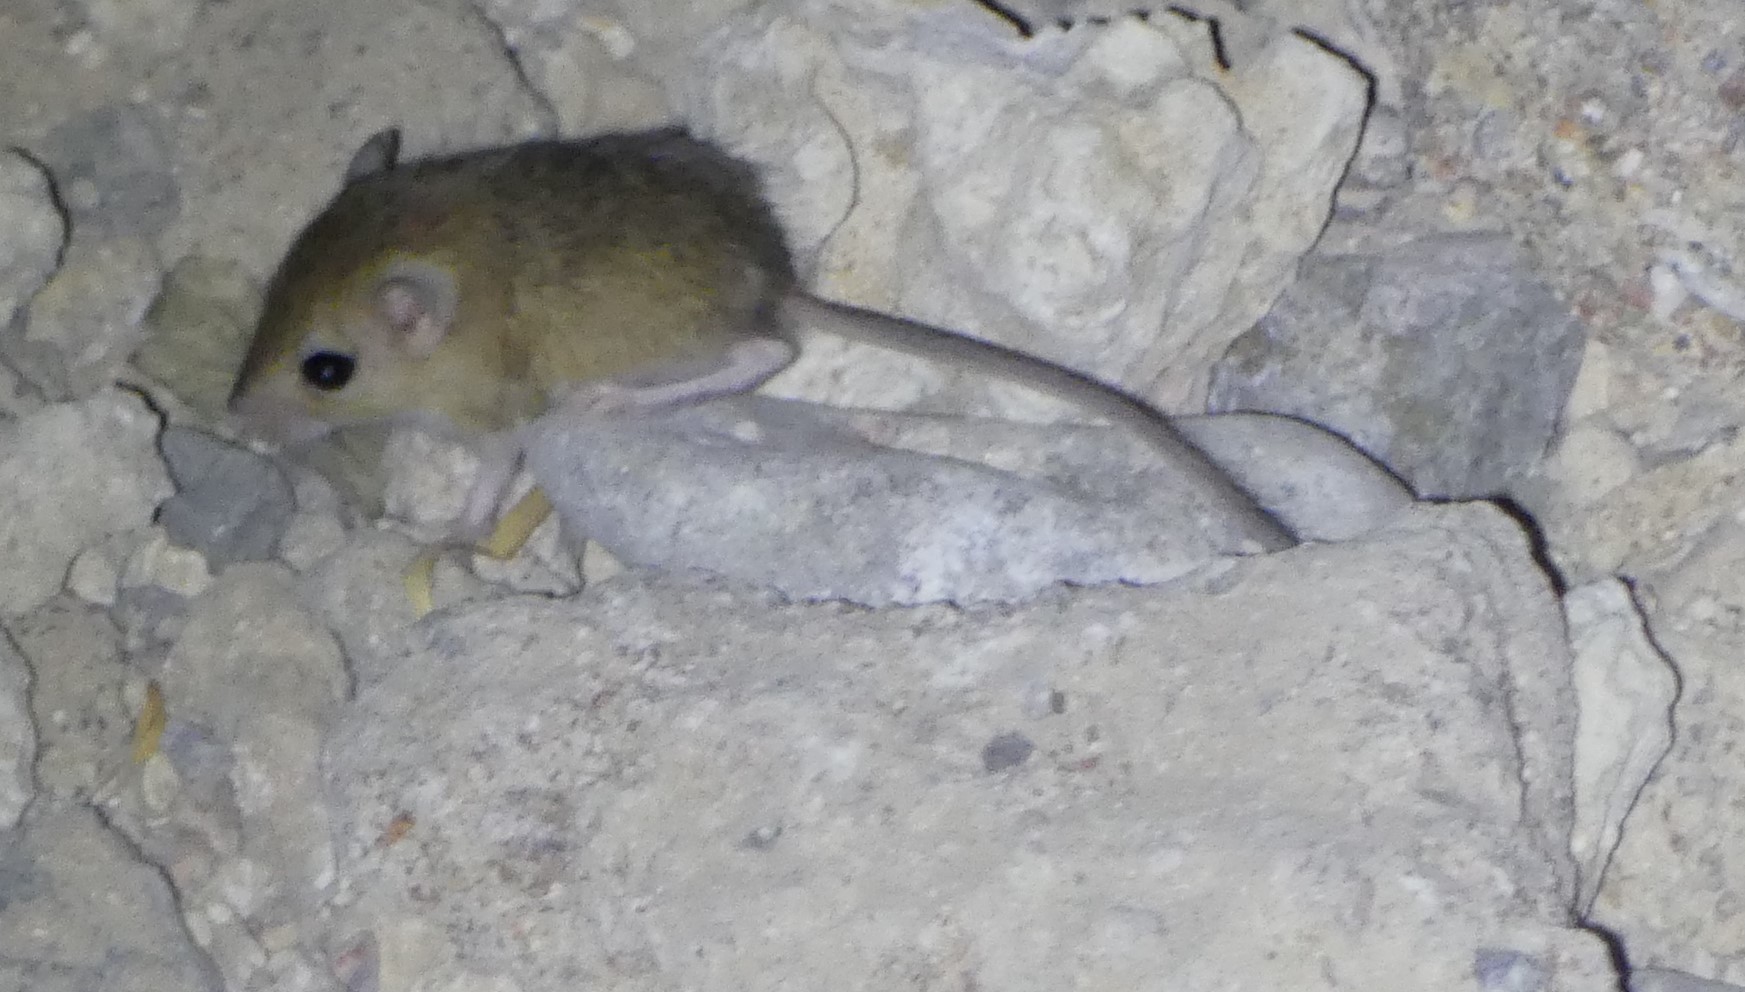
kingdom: Animalia
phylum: Chordata
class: Mammalia
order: Rodentia
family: Muridae
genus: Dipodillus
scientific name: Dipodillus dasyurus
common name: Wagner s dipodil
